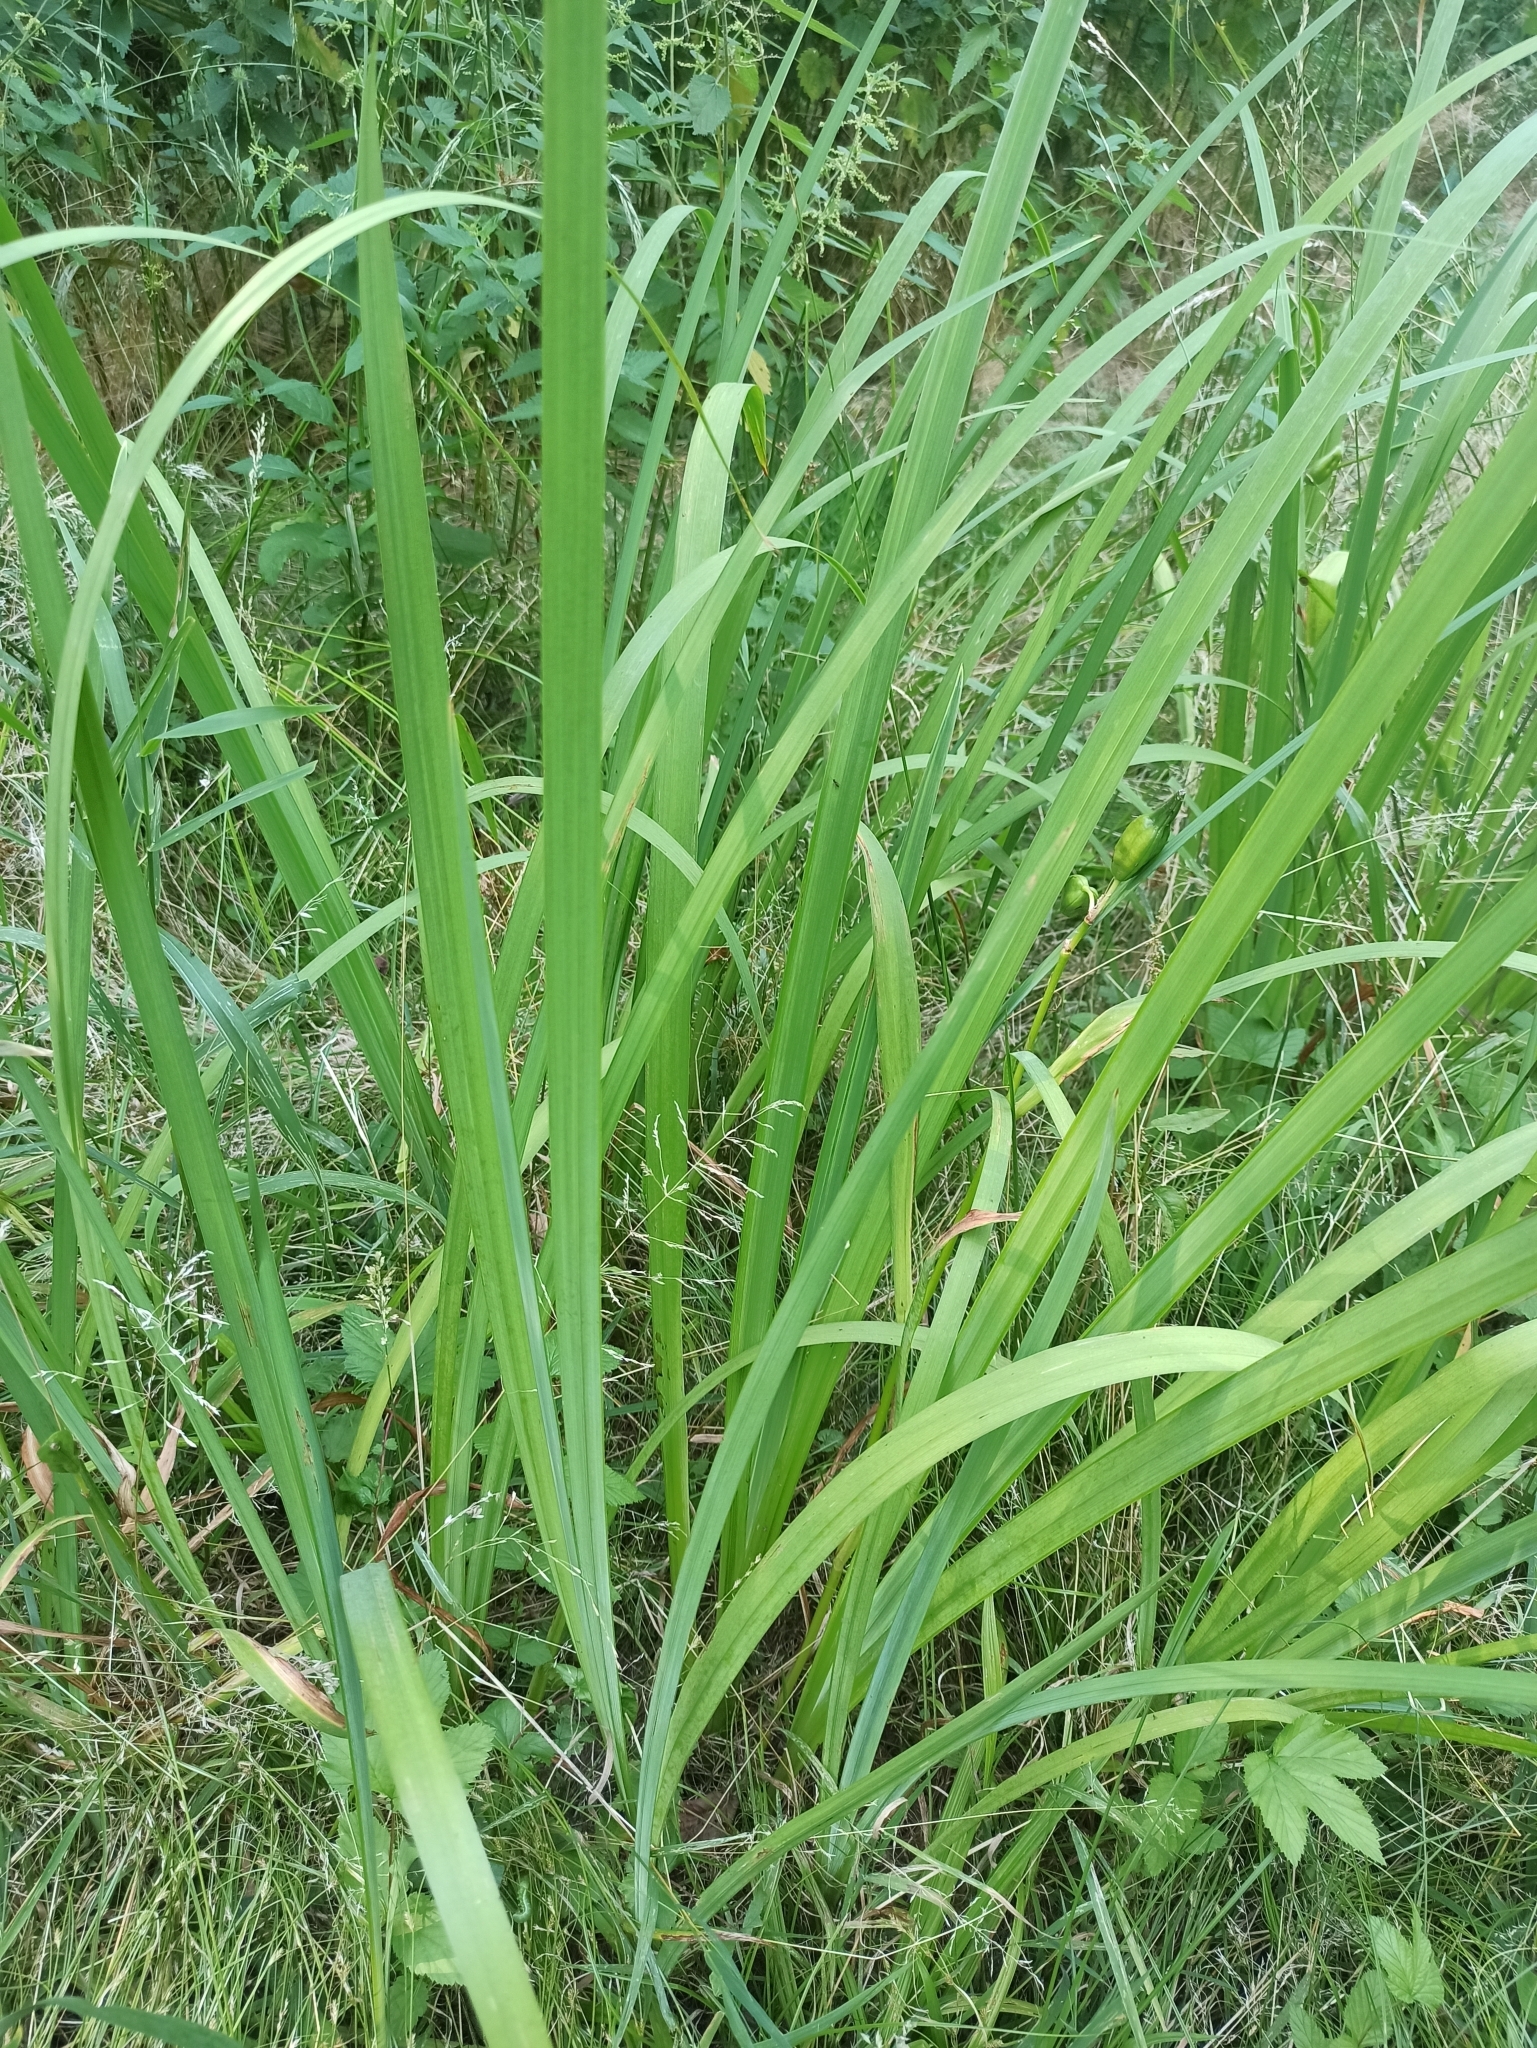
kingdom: Plantae
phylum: Tracheophyta
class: Liliopsida
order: Asparagales
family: Iridaceae
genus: Iris
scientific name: Iris pseudacorus
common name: Yellow flag
